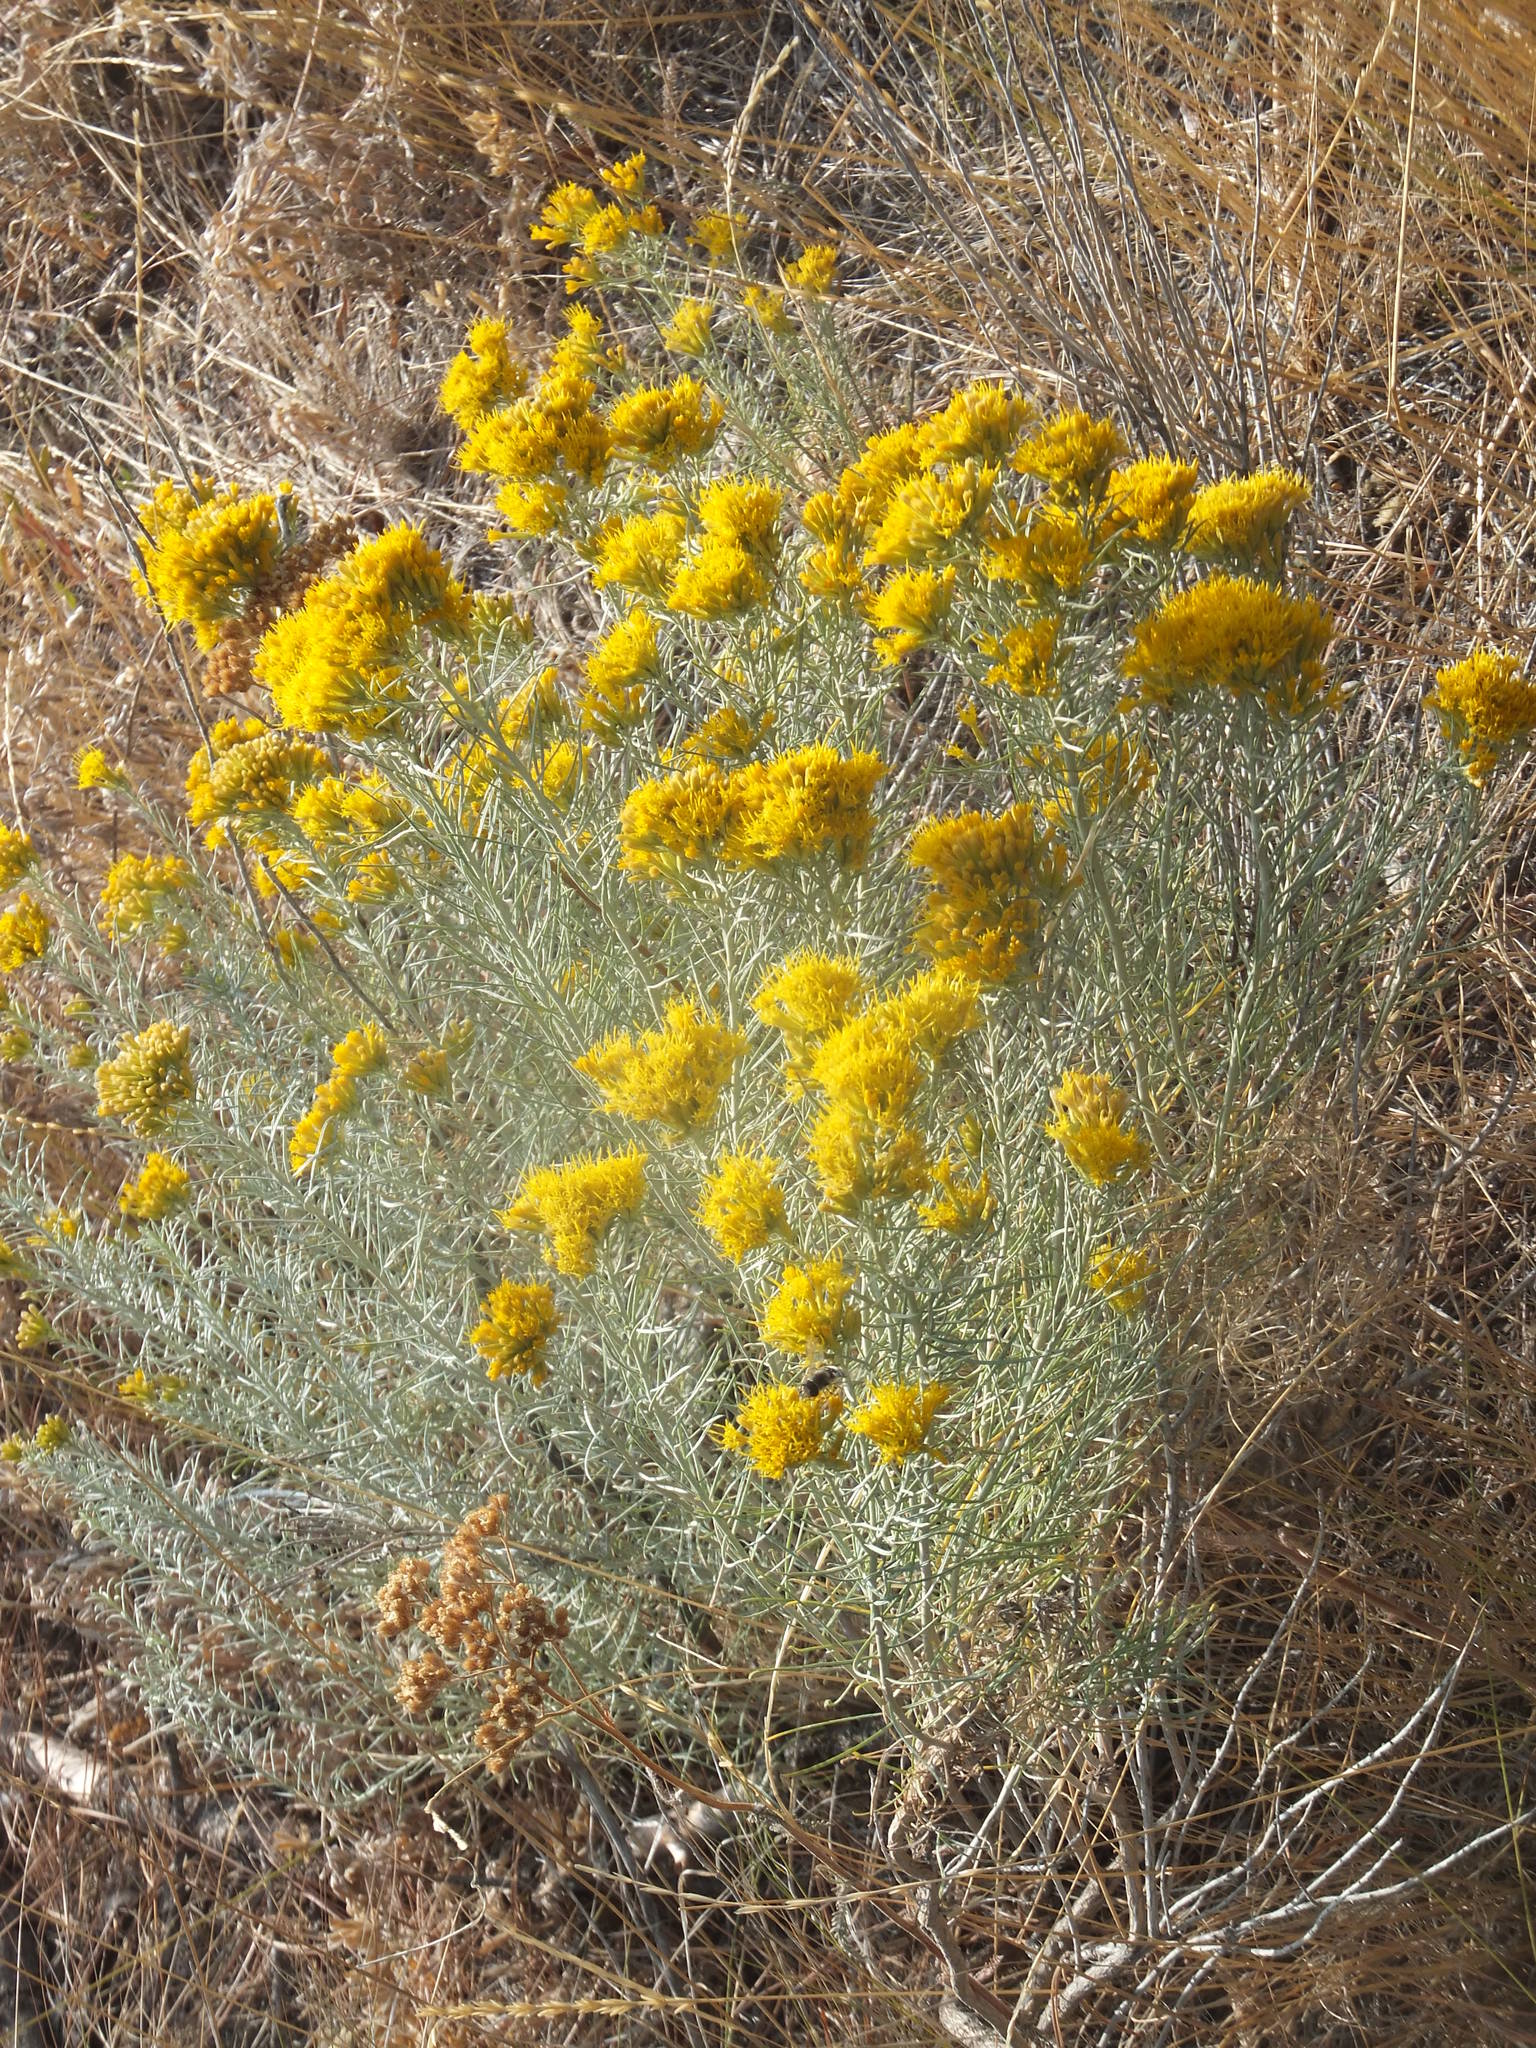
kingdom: Plantae
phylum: Tracheophyta
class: Magnoliopsida
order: Asterales
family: Asteraceae
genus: Ericameria
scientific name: Ericameria nauseosa
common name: Rubber rabbitbrush
